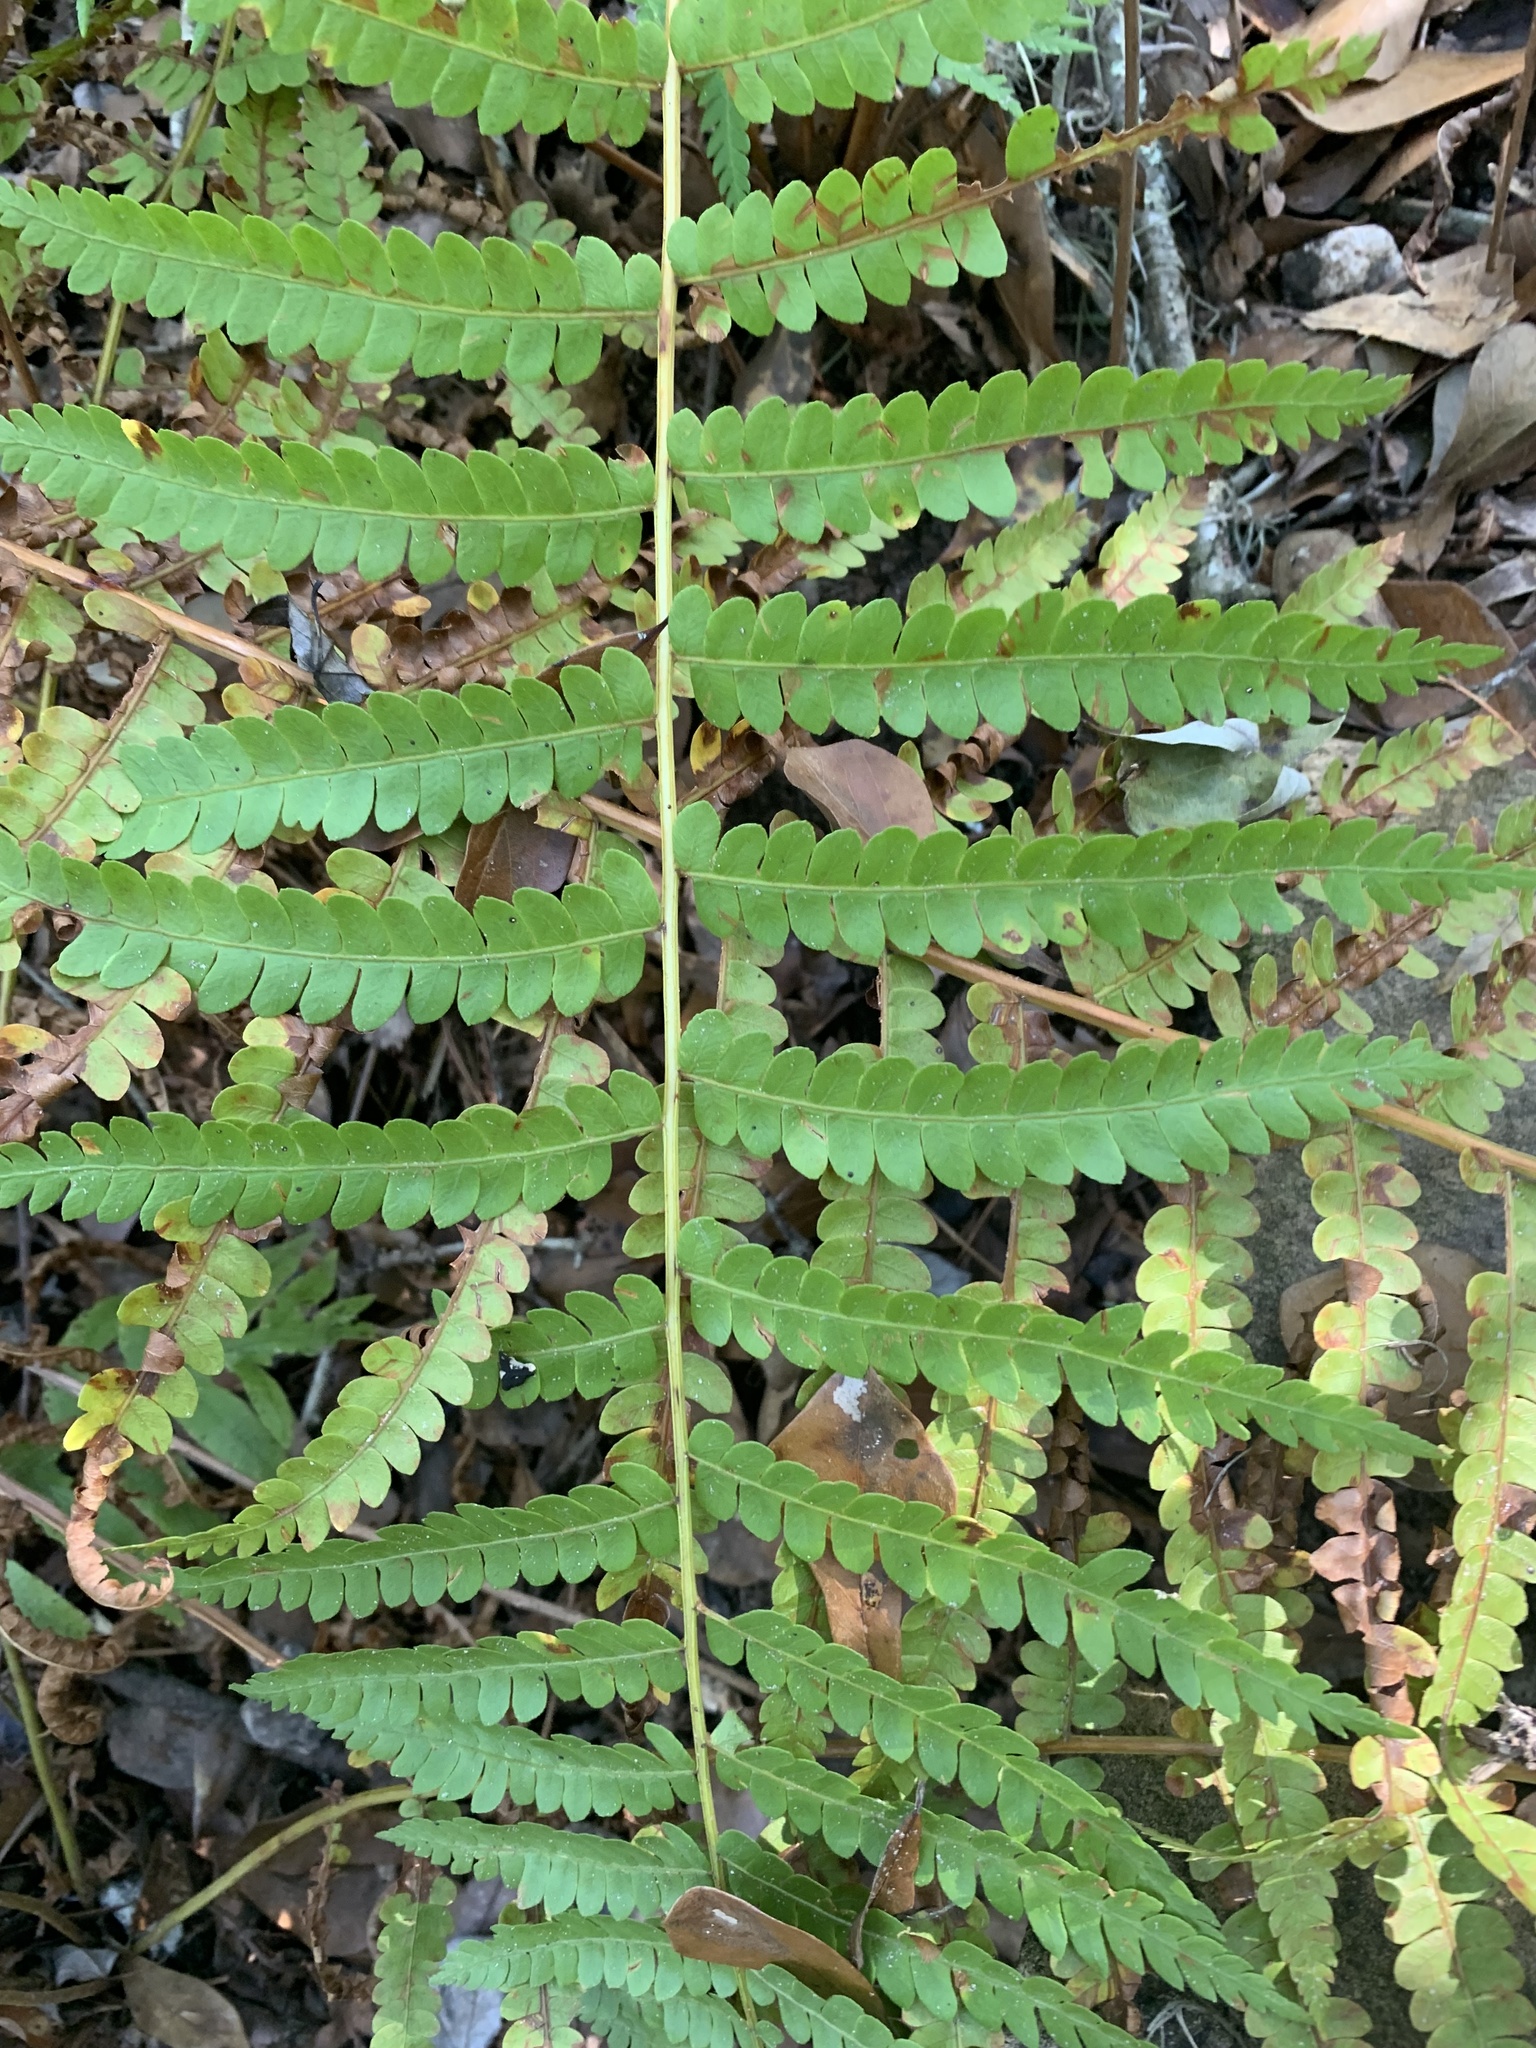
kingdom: Plantae
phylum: Tracheophyta
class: Polypodiopsida
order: Osmundales
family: Osmundaceae
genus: Osmundastrum
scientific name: Osmundastrum cinnamomeum
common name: Cinnamon fern
